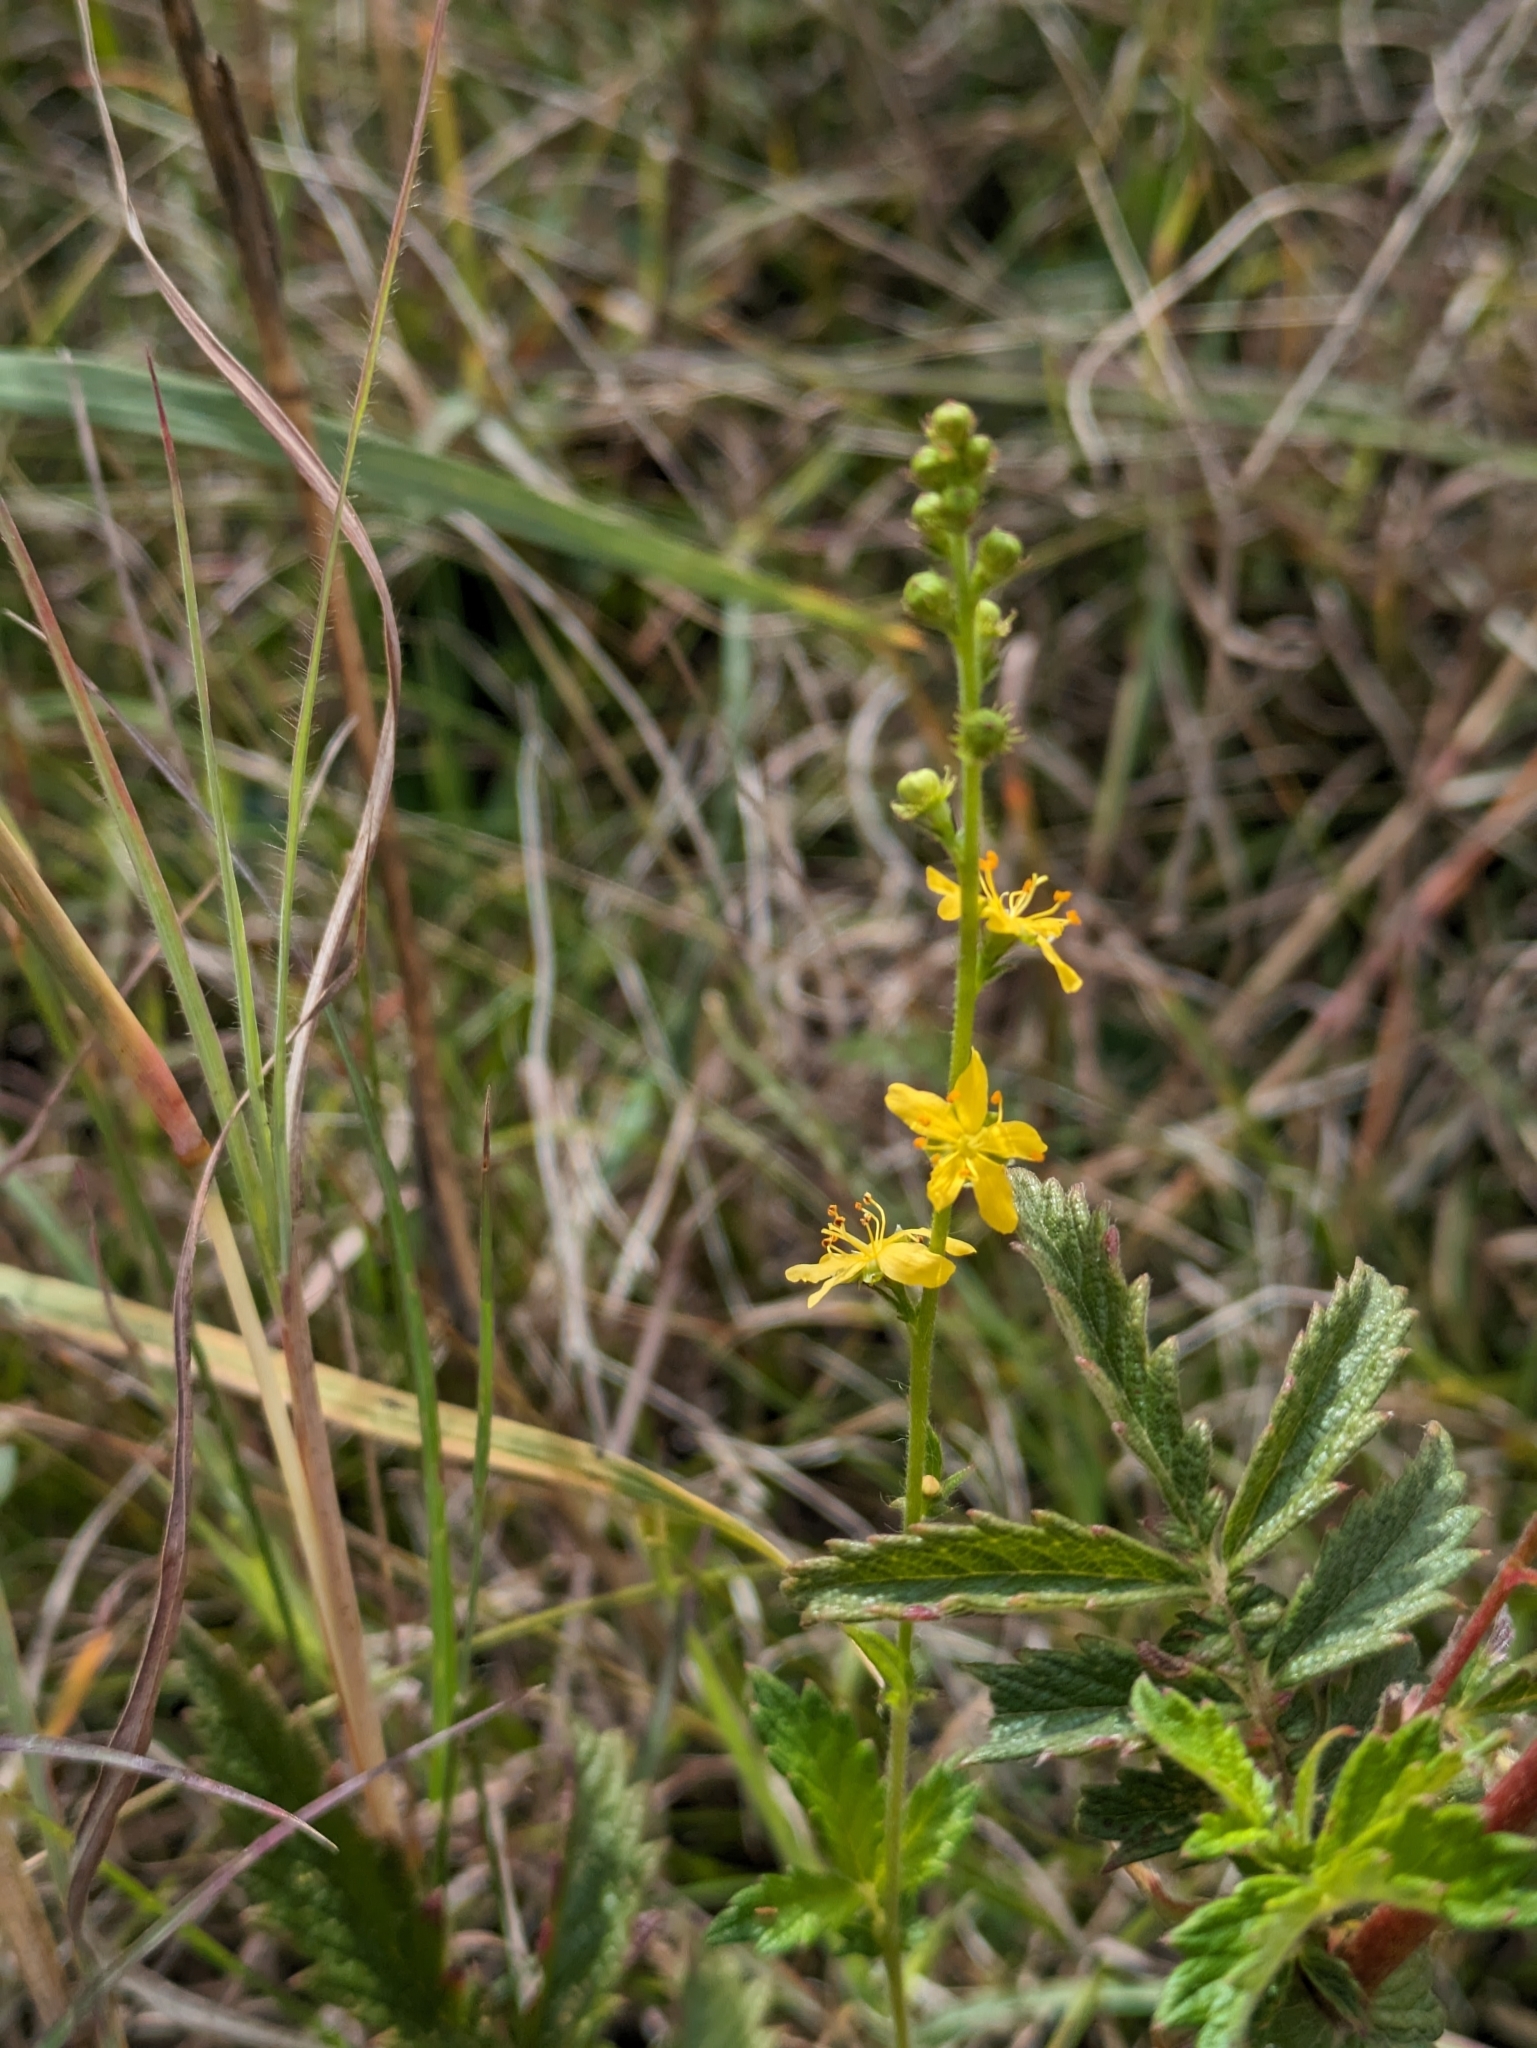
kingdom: Plantae
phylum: Tracheophyta
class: Magnoliopsida
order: Rosales
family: Rosaceae
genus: Agrimonia
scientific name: Agrimonia eupatoria
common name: Agrimony
